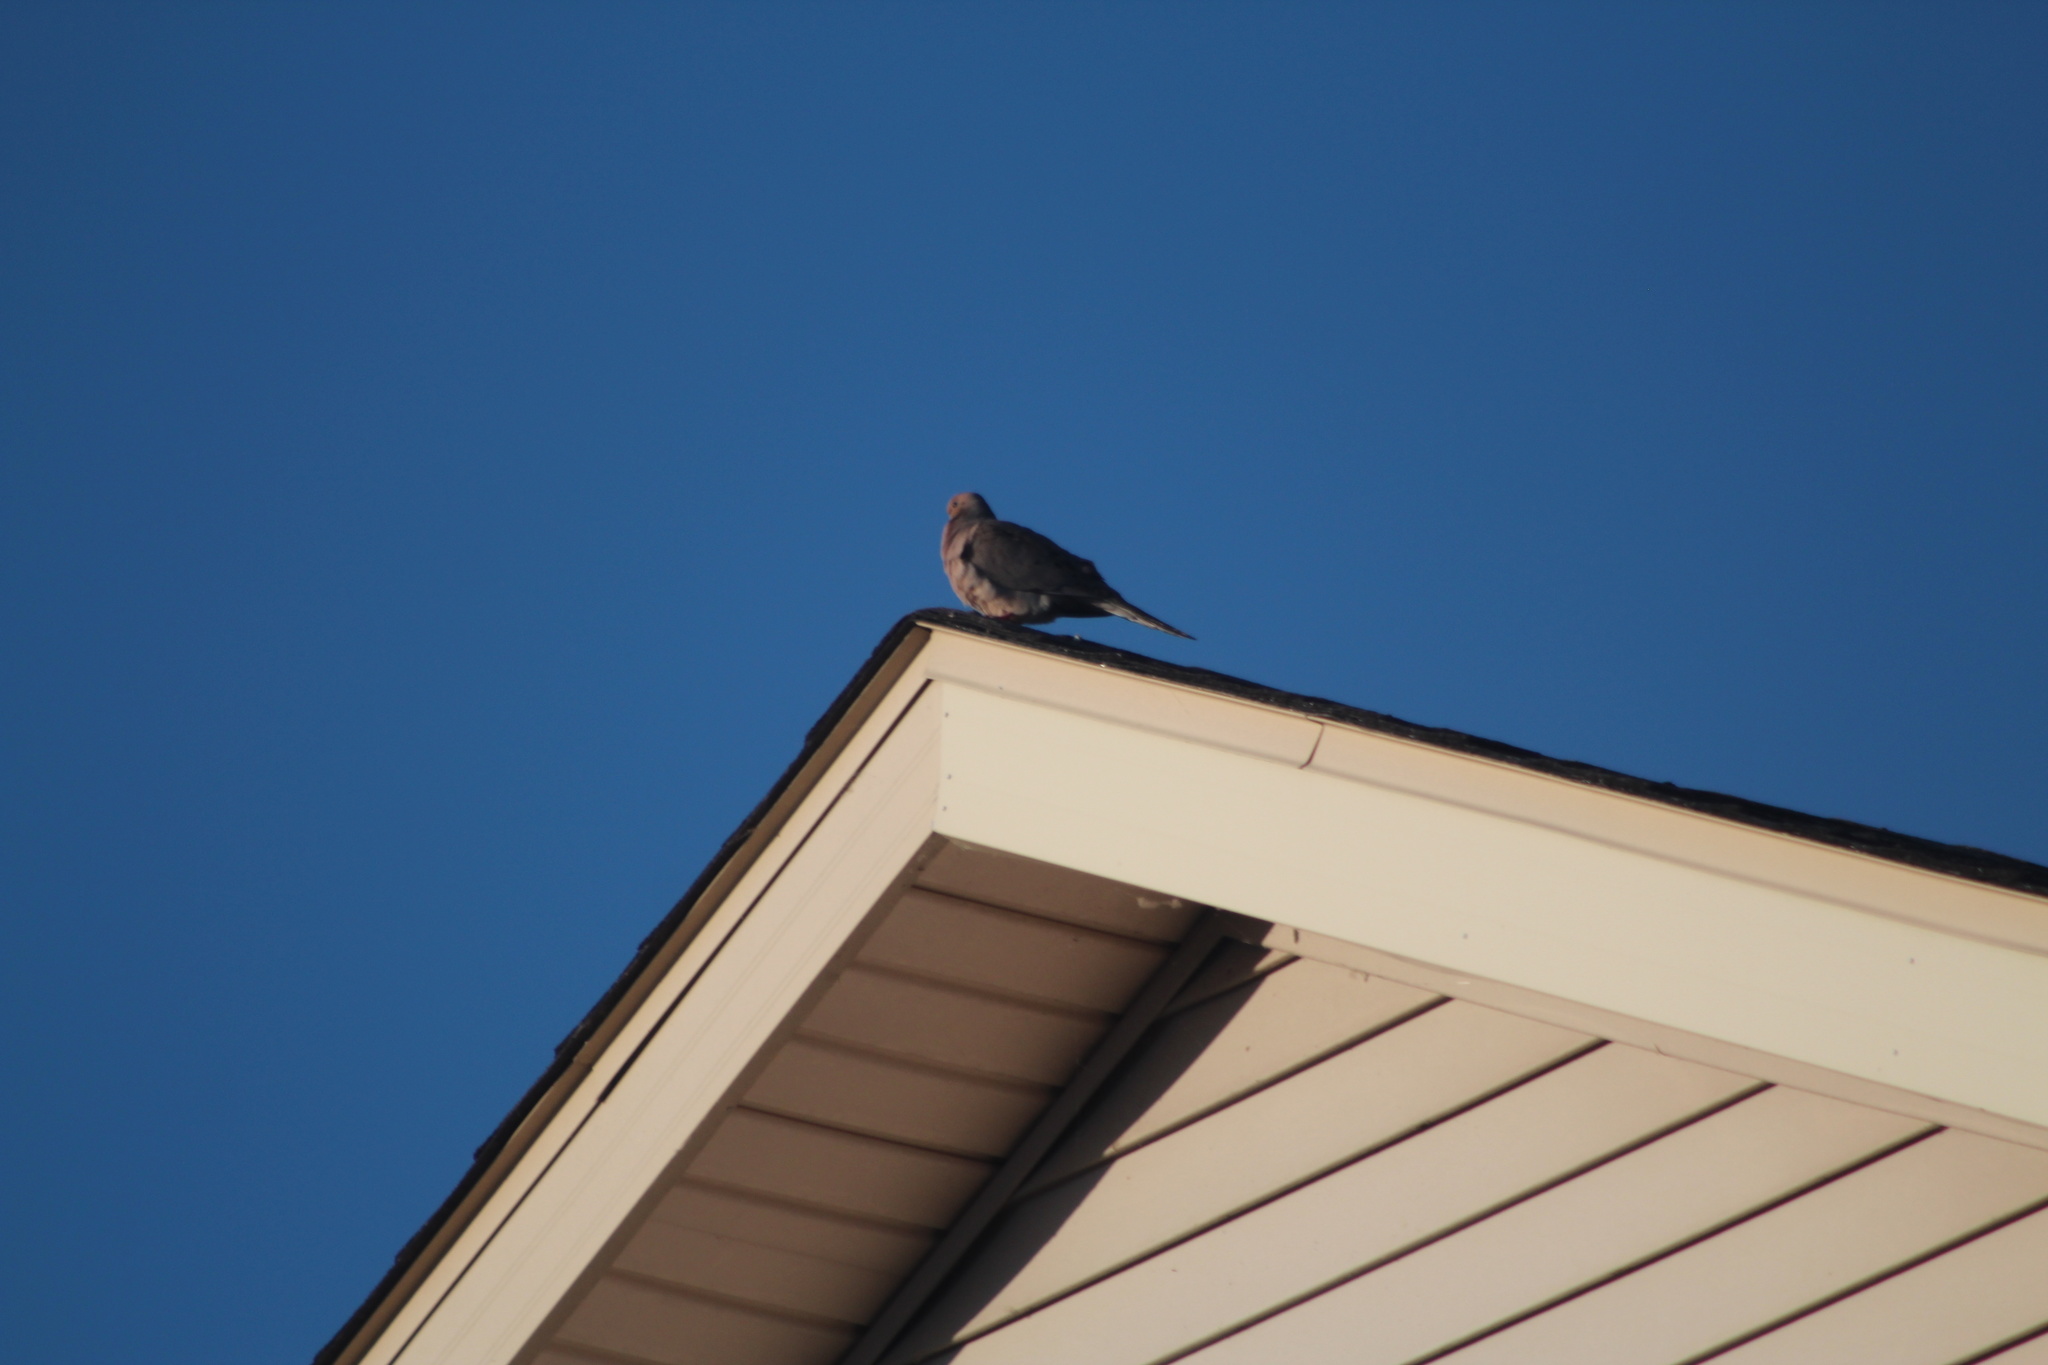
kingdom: Animalia
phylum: Chordata
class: Aves
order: Columbiformes
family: Columbidae
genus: Zenaida
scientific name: Zenaida macroura
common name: Mourning dove
